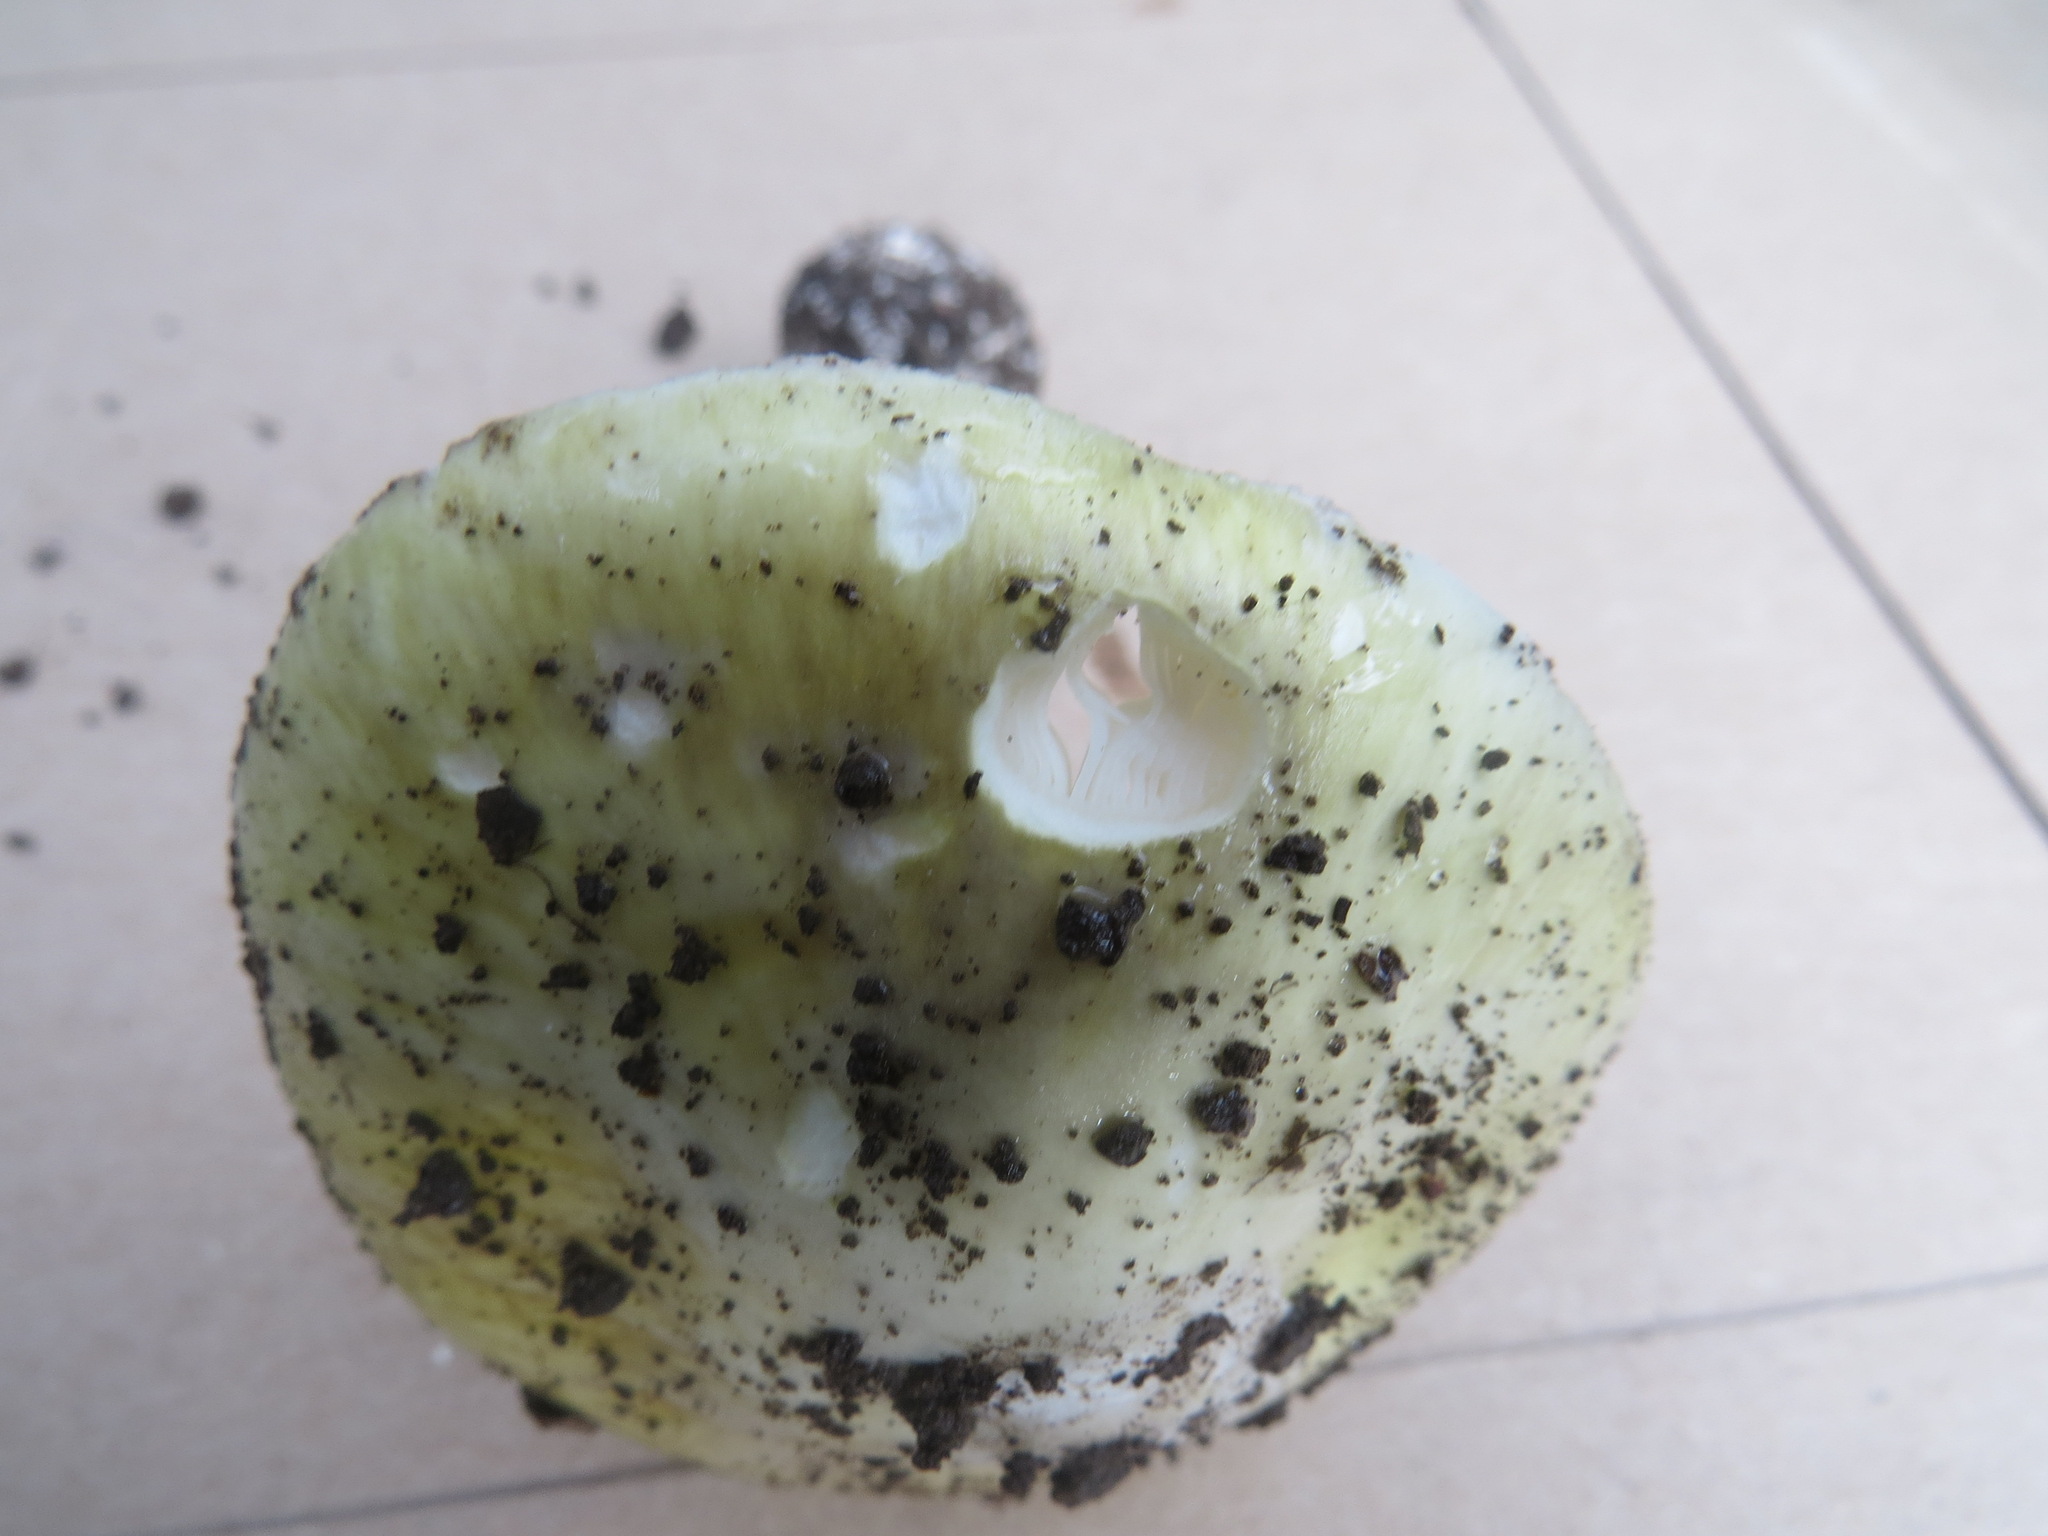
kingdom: Fungi
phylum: Basidiomycota
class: Agaricomycetes
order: Agaricales
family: Amanitaceae
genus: Amanita
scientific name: Amanita phalloides
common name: Death cap
